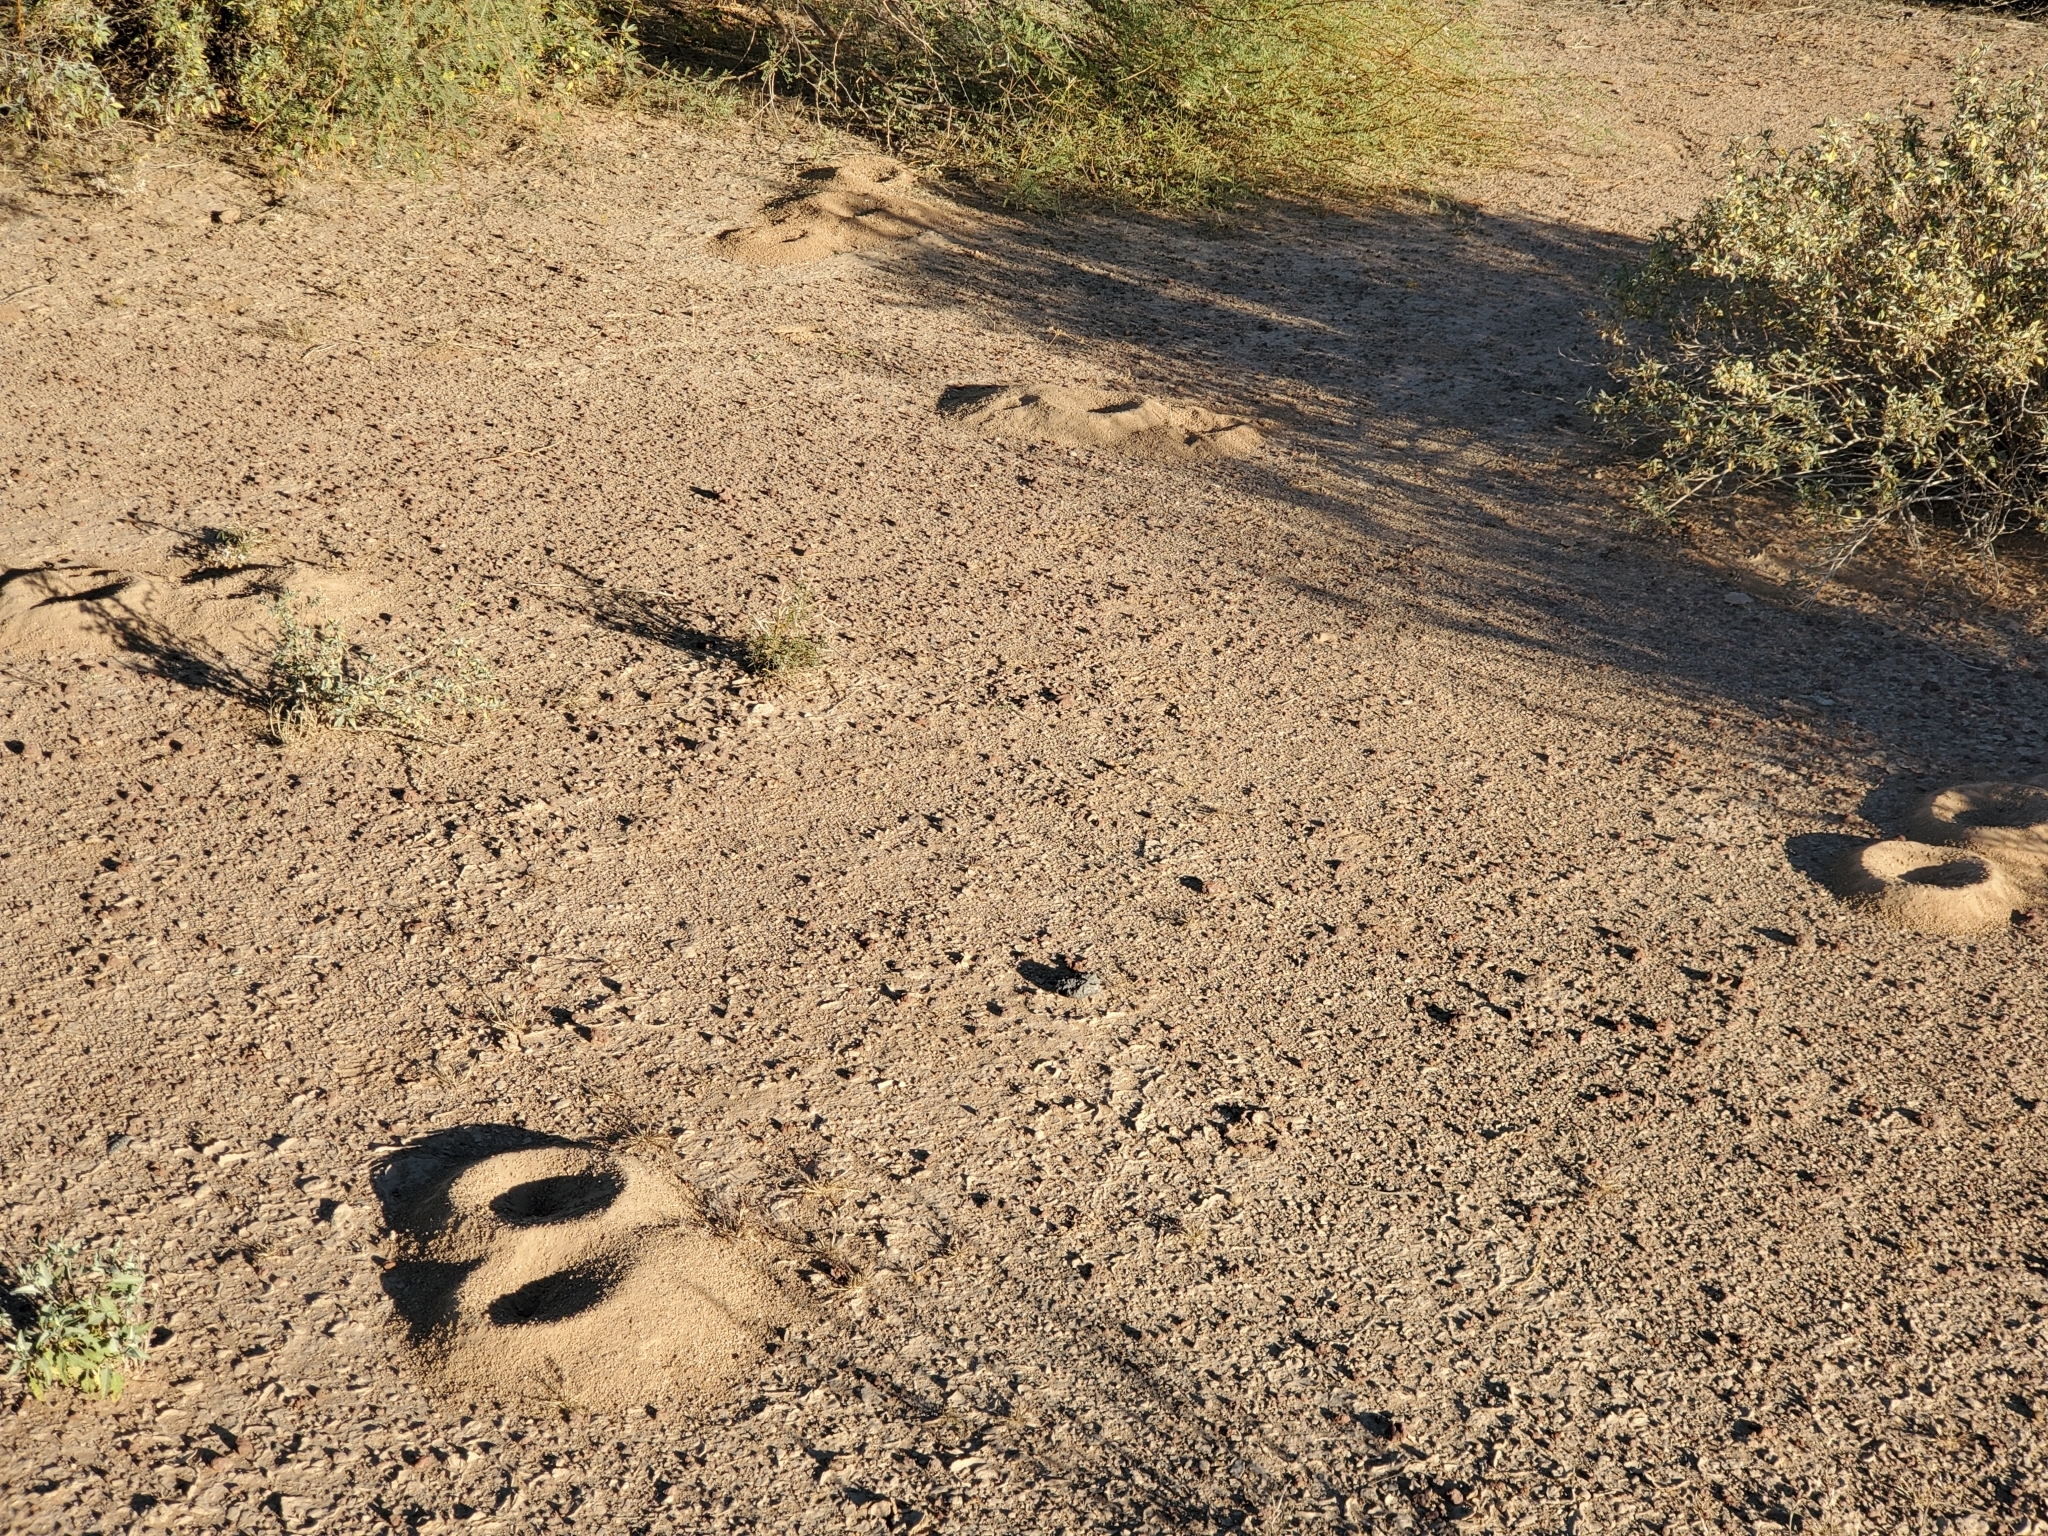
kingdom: Animalia
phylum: Arthropoda
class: Insecta
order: Hymenoptera
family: Formicidae
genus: Acromyrmex
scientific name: Acromyrmex versicolor
